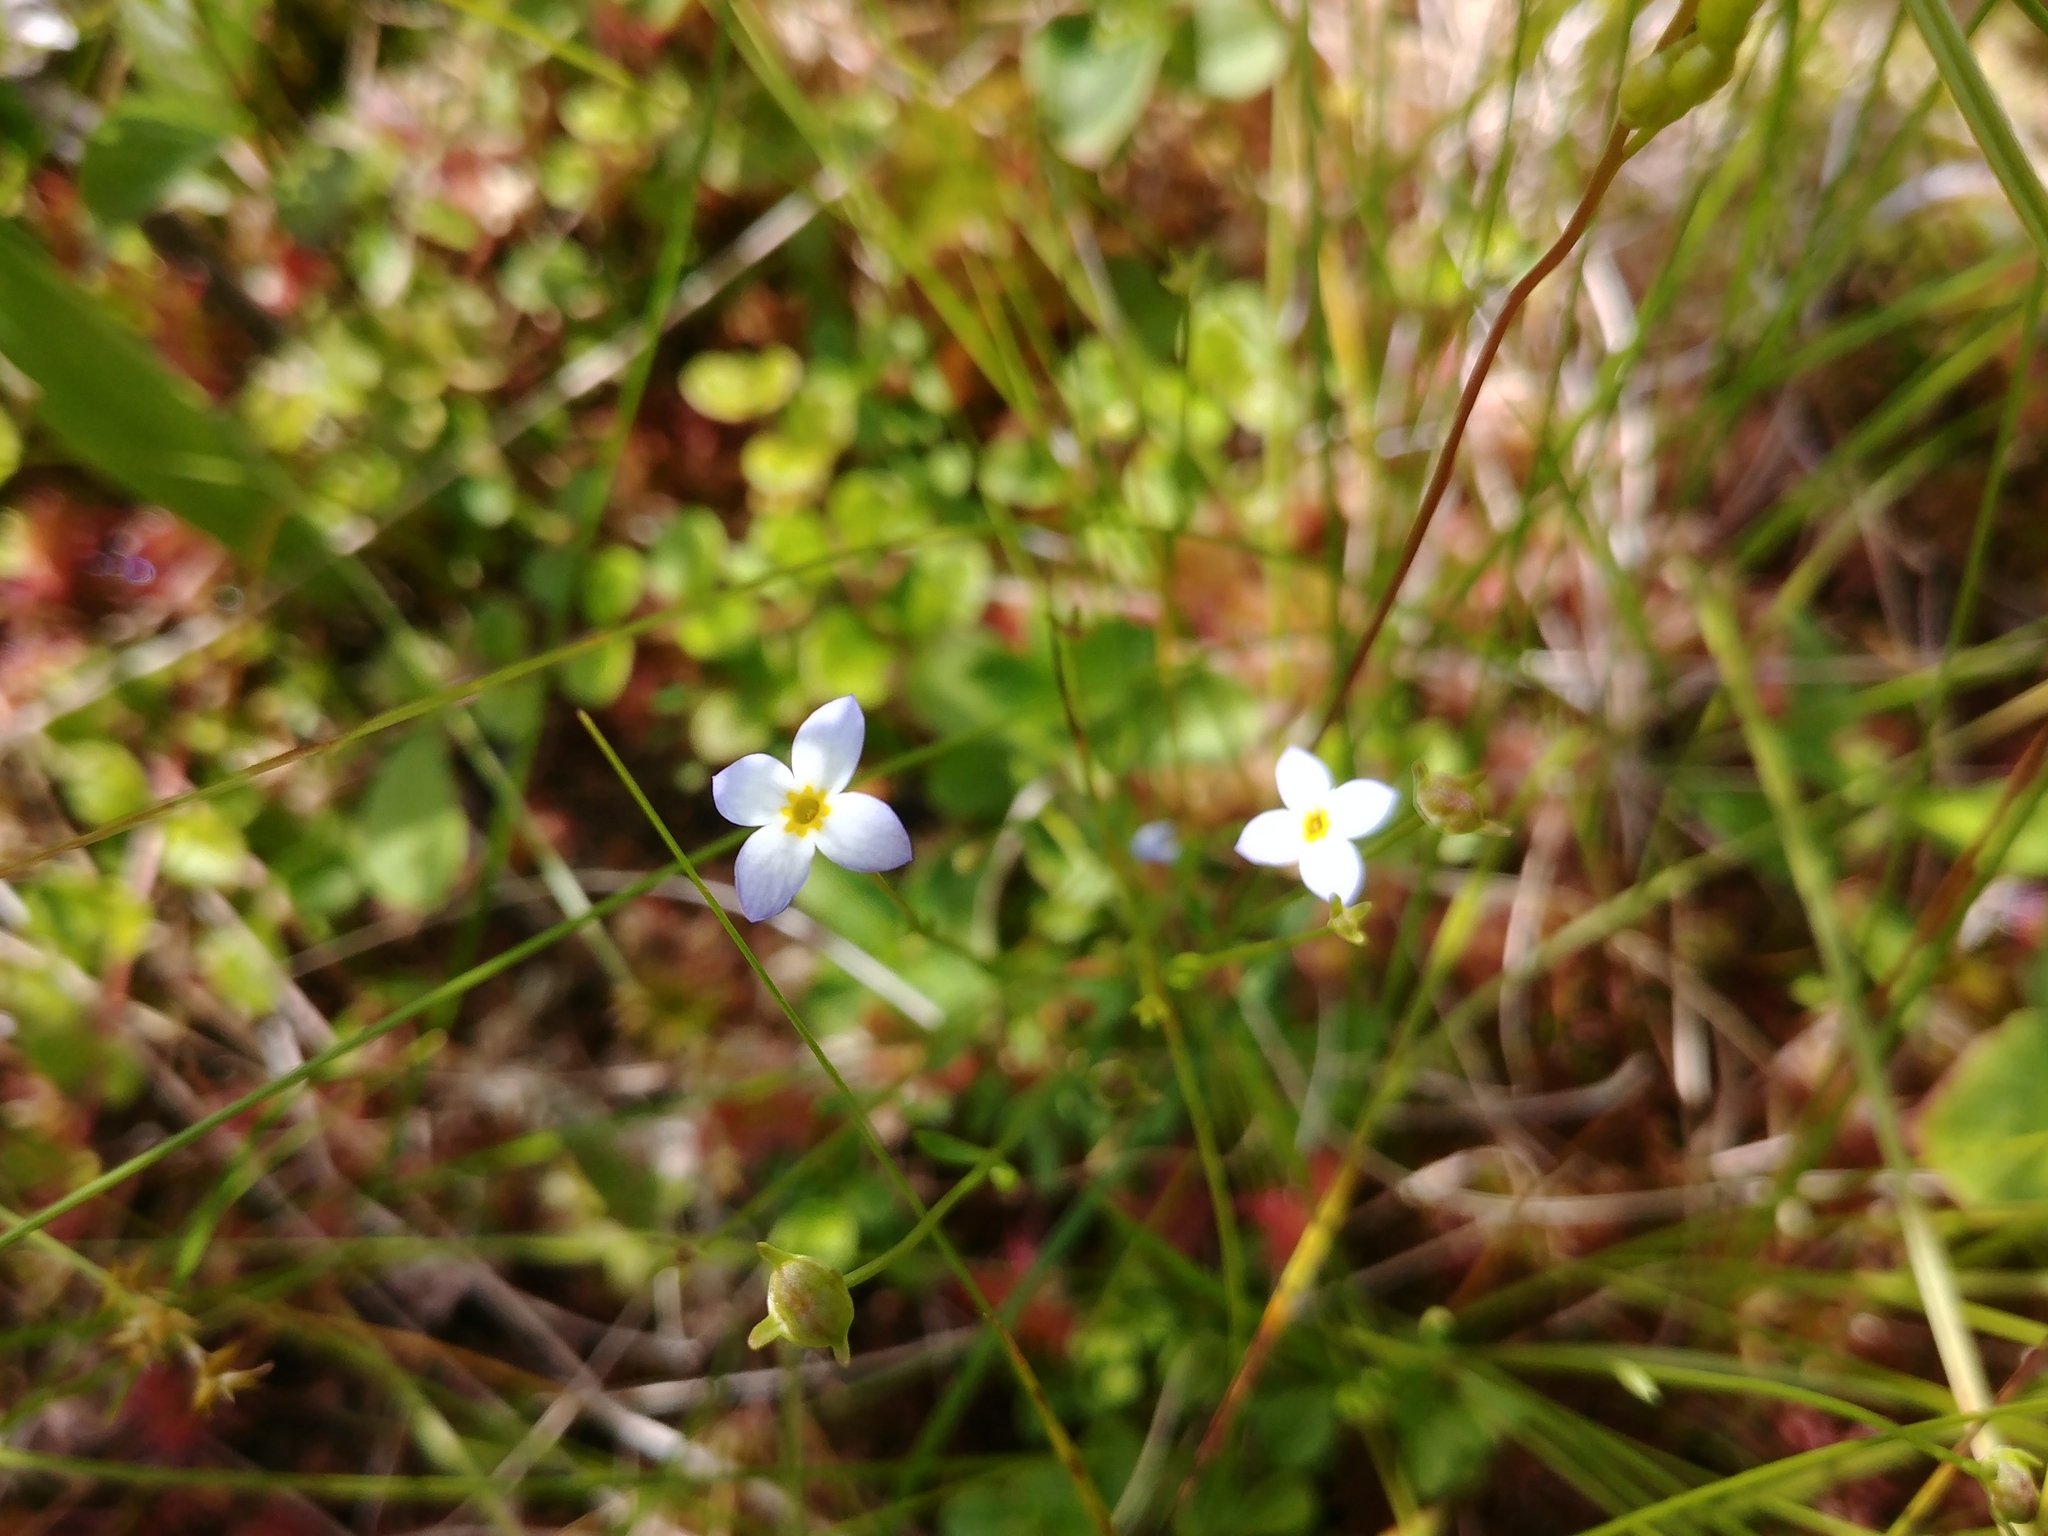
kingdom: Plantae
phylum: Tracheophyta
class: Magnoliopsida
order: Gentianales
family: Rubiaceae
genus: Houstonia
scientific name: Houstonia caerulea
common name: Bluets
